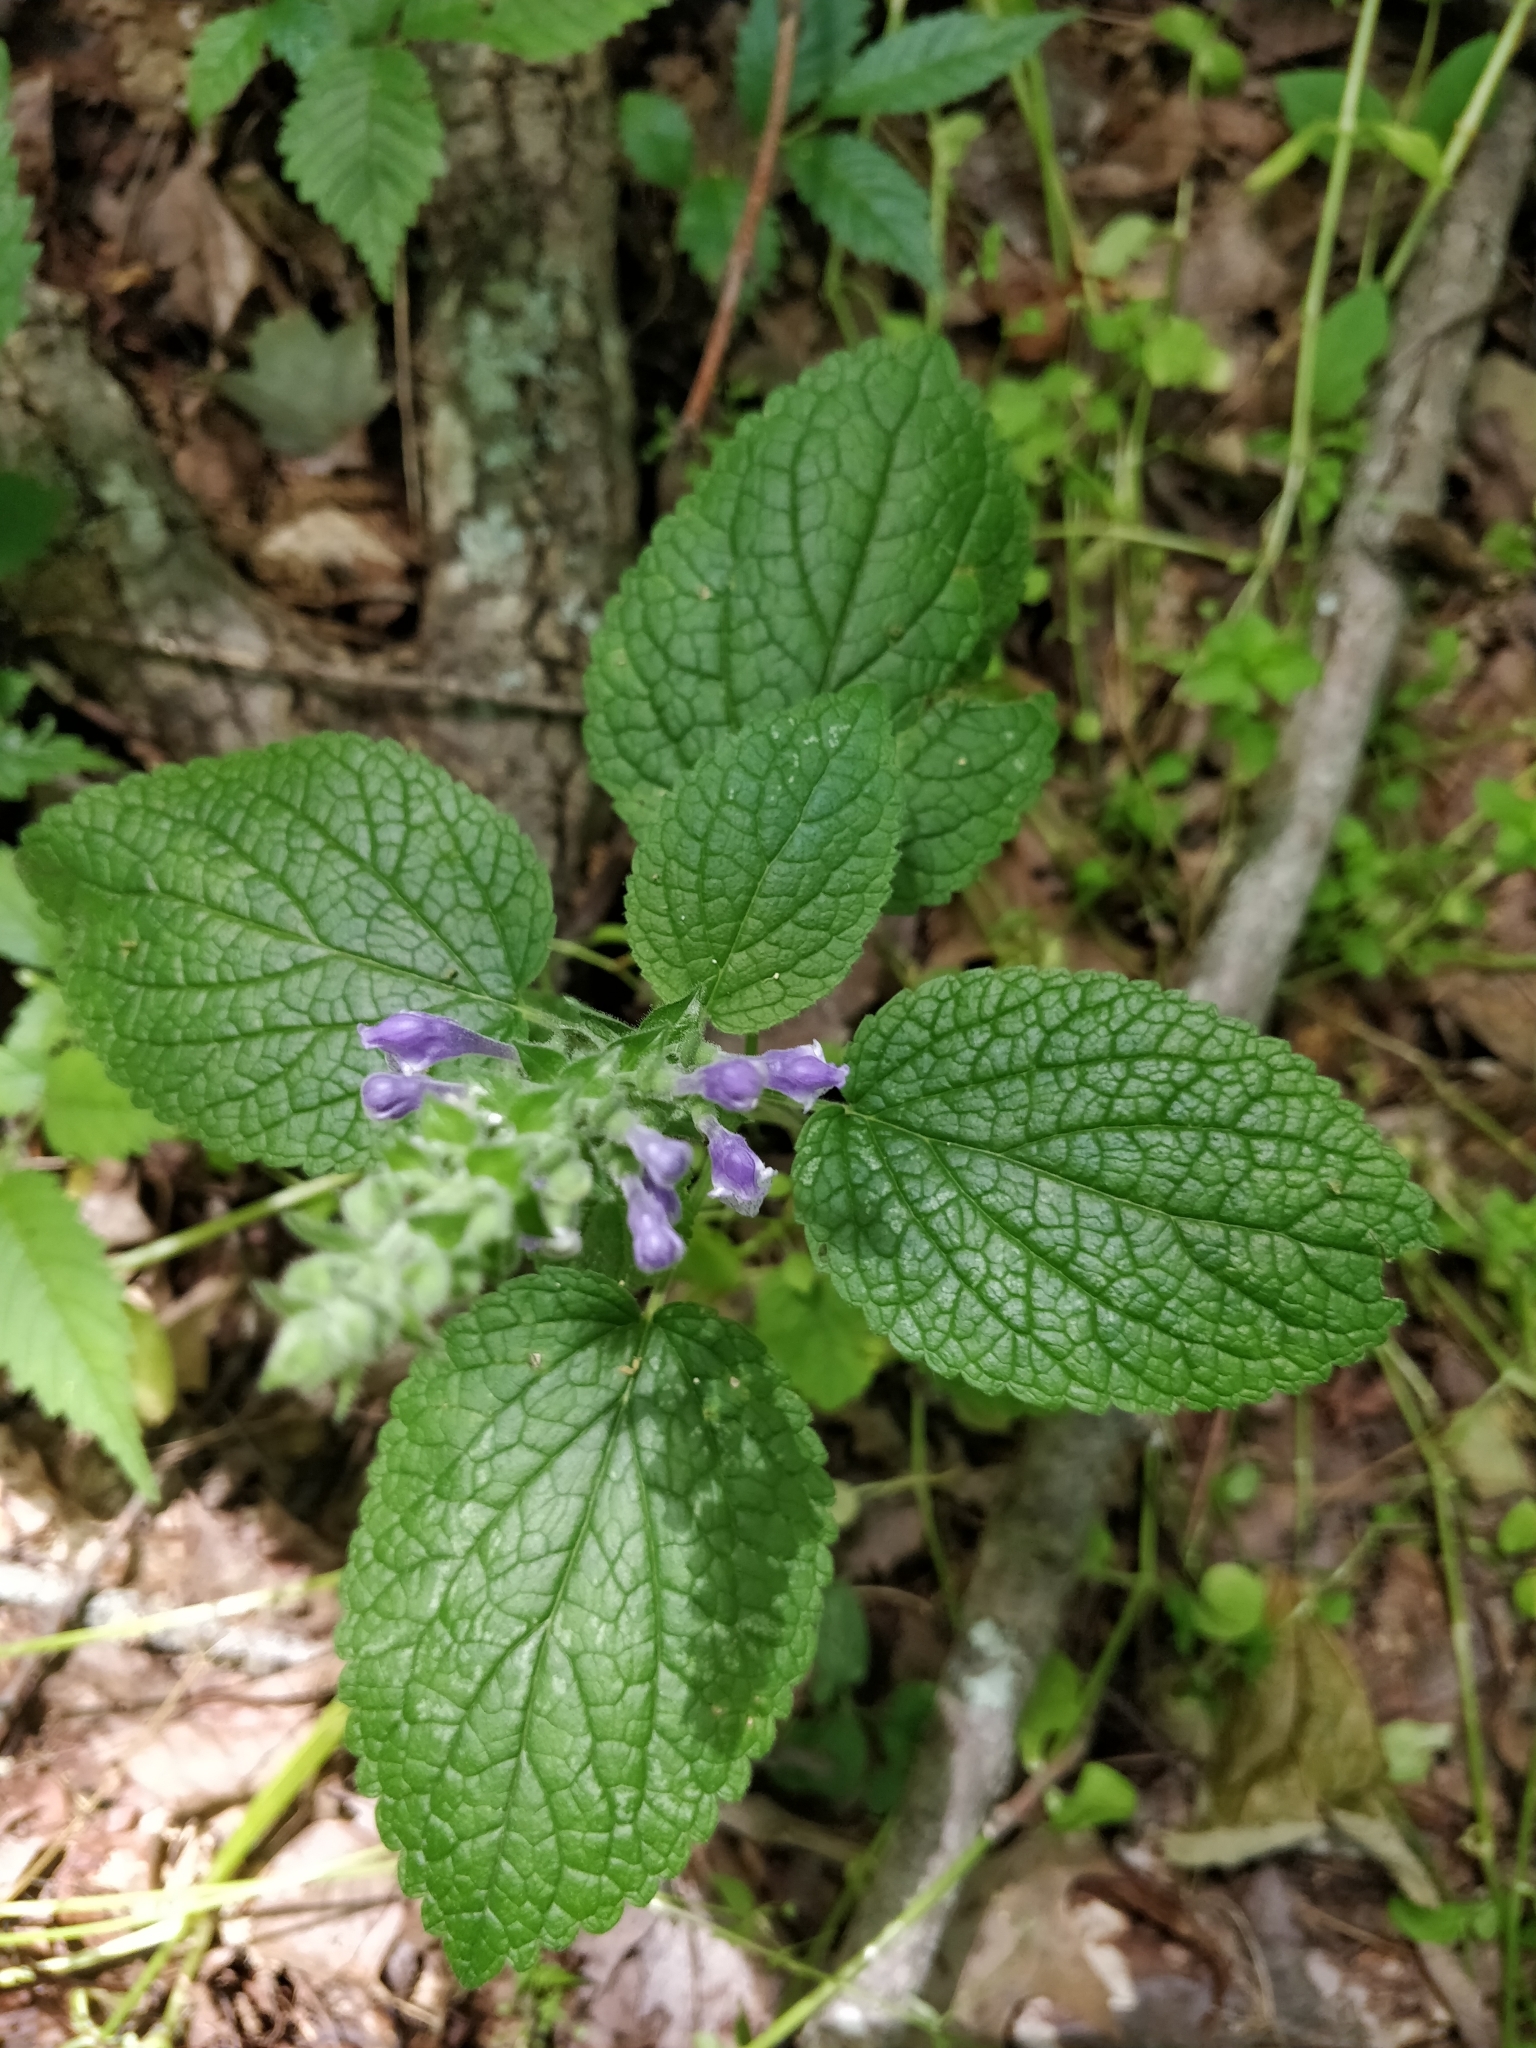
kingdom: Plantae
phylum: Tracheophyta
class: Magnoliopsida
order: Lamiales
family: Lamiaceae
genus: Scutellaria
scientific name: Scutellaria ovata
